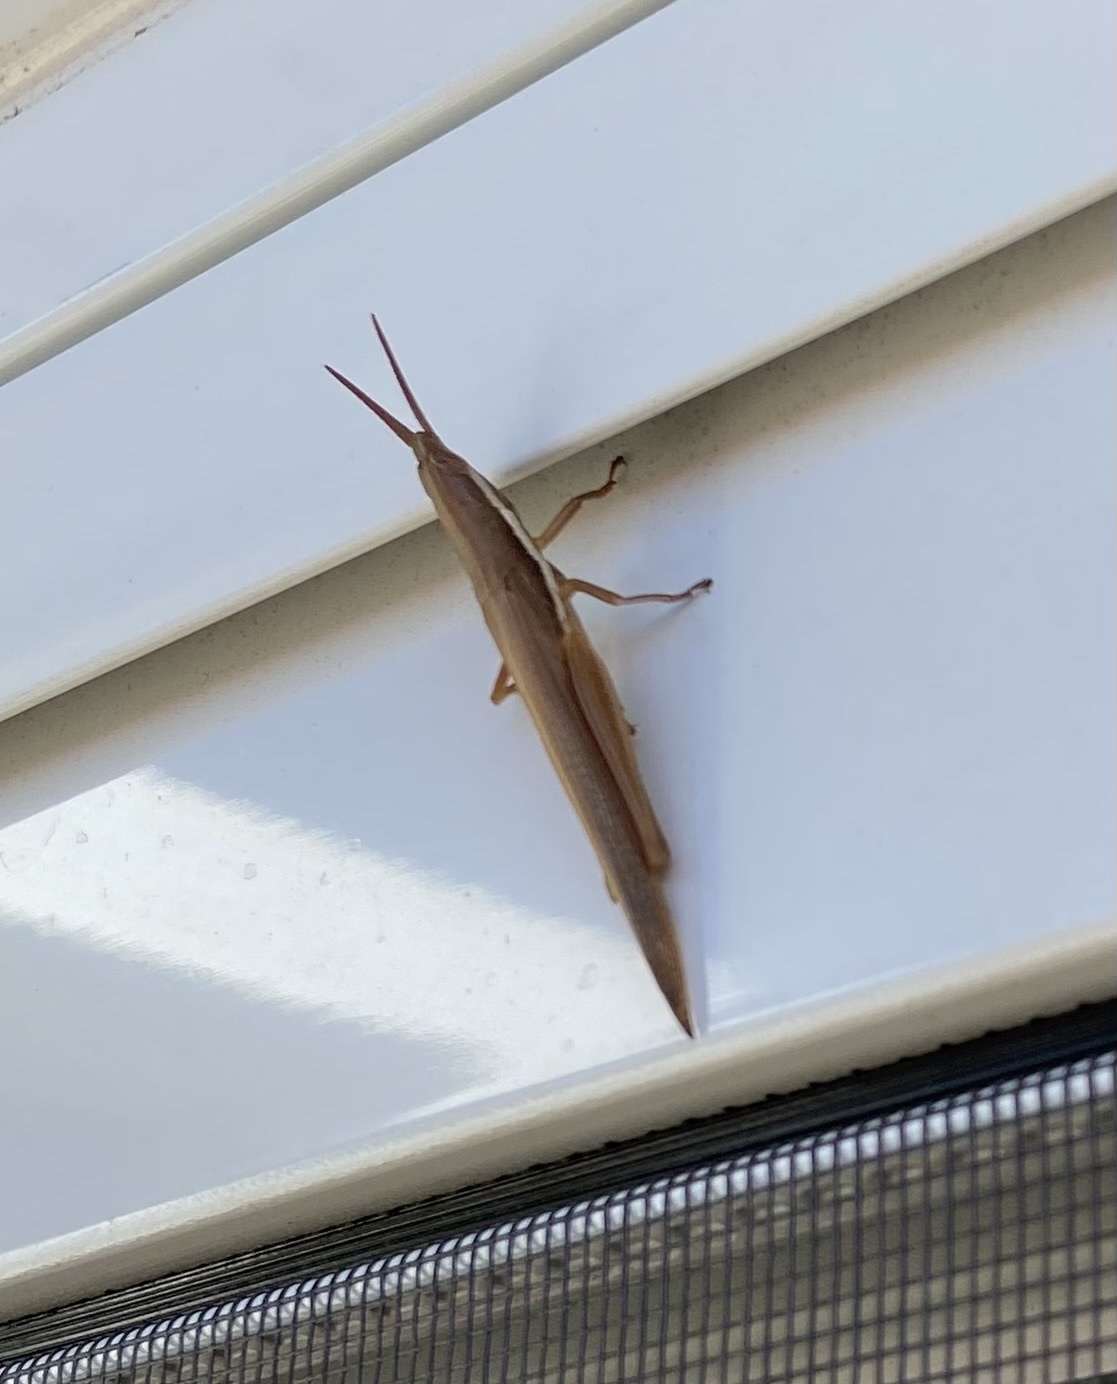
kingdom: Animalia
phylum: Arthropoda
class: Insecta
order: Orthoptera
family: Acrididae
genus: Leptysma
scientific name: Leptysma marginicollis
